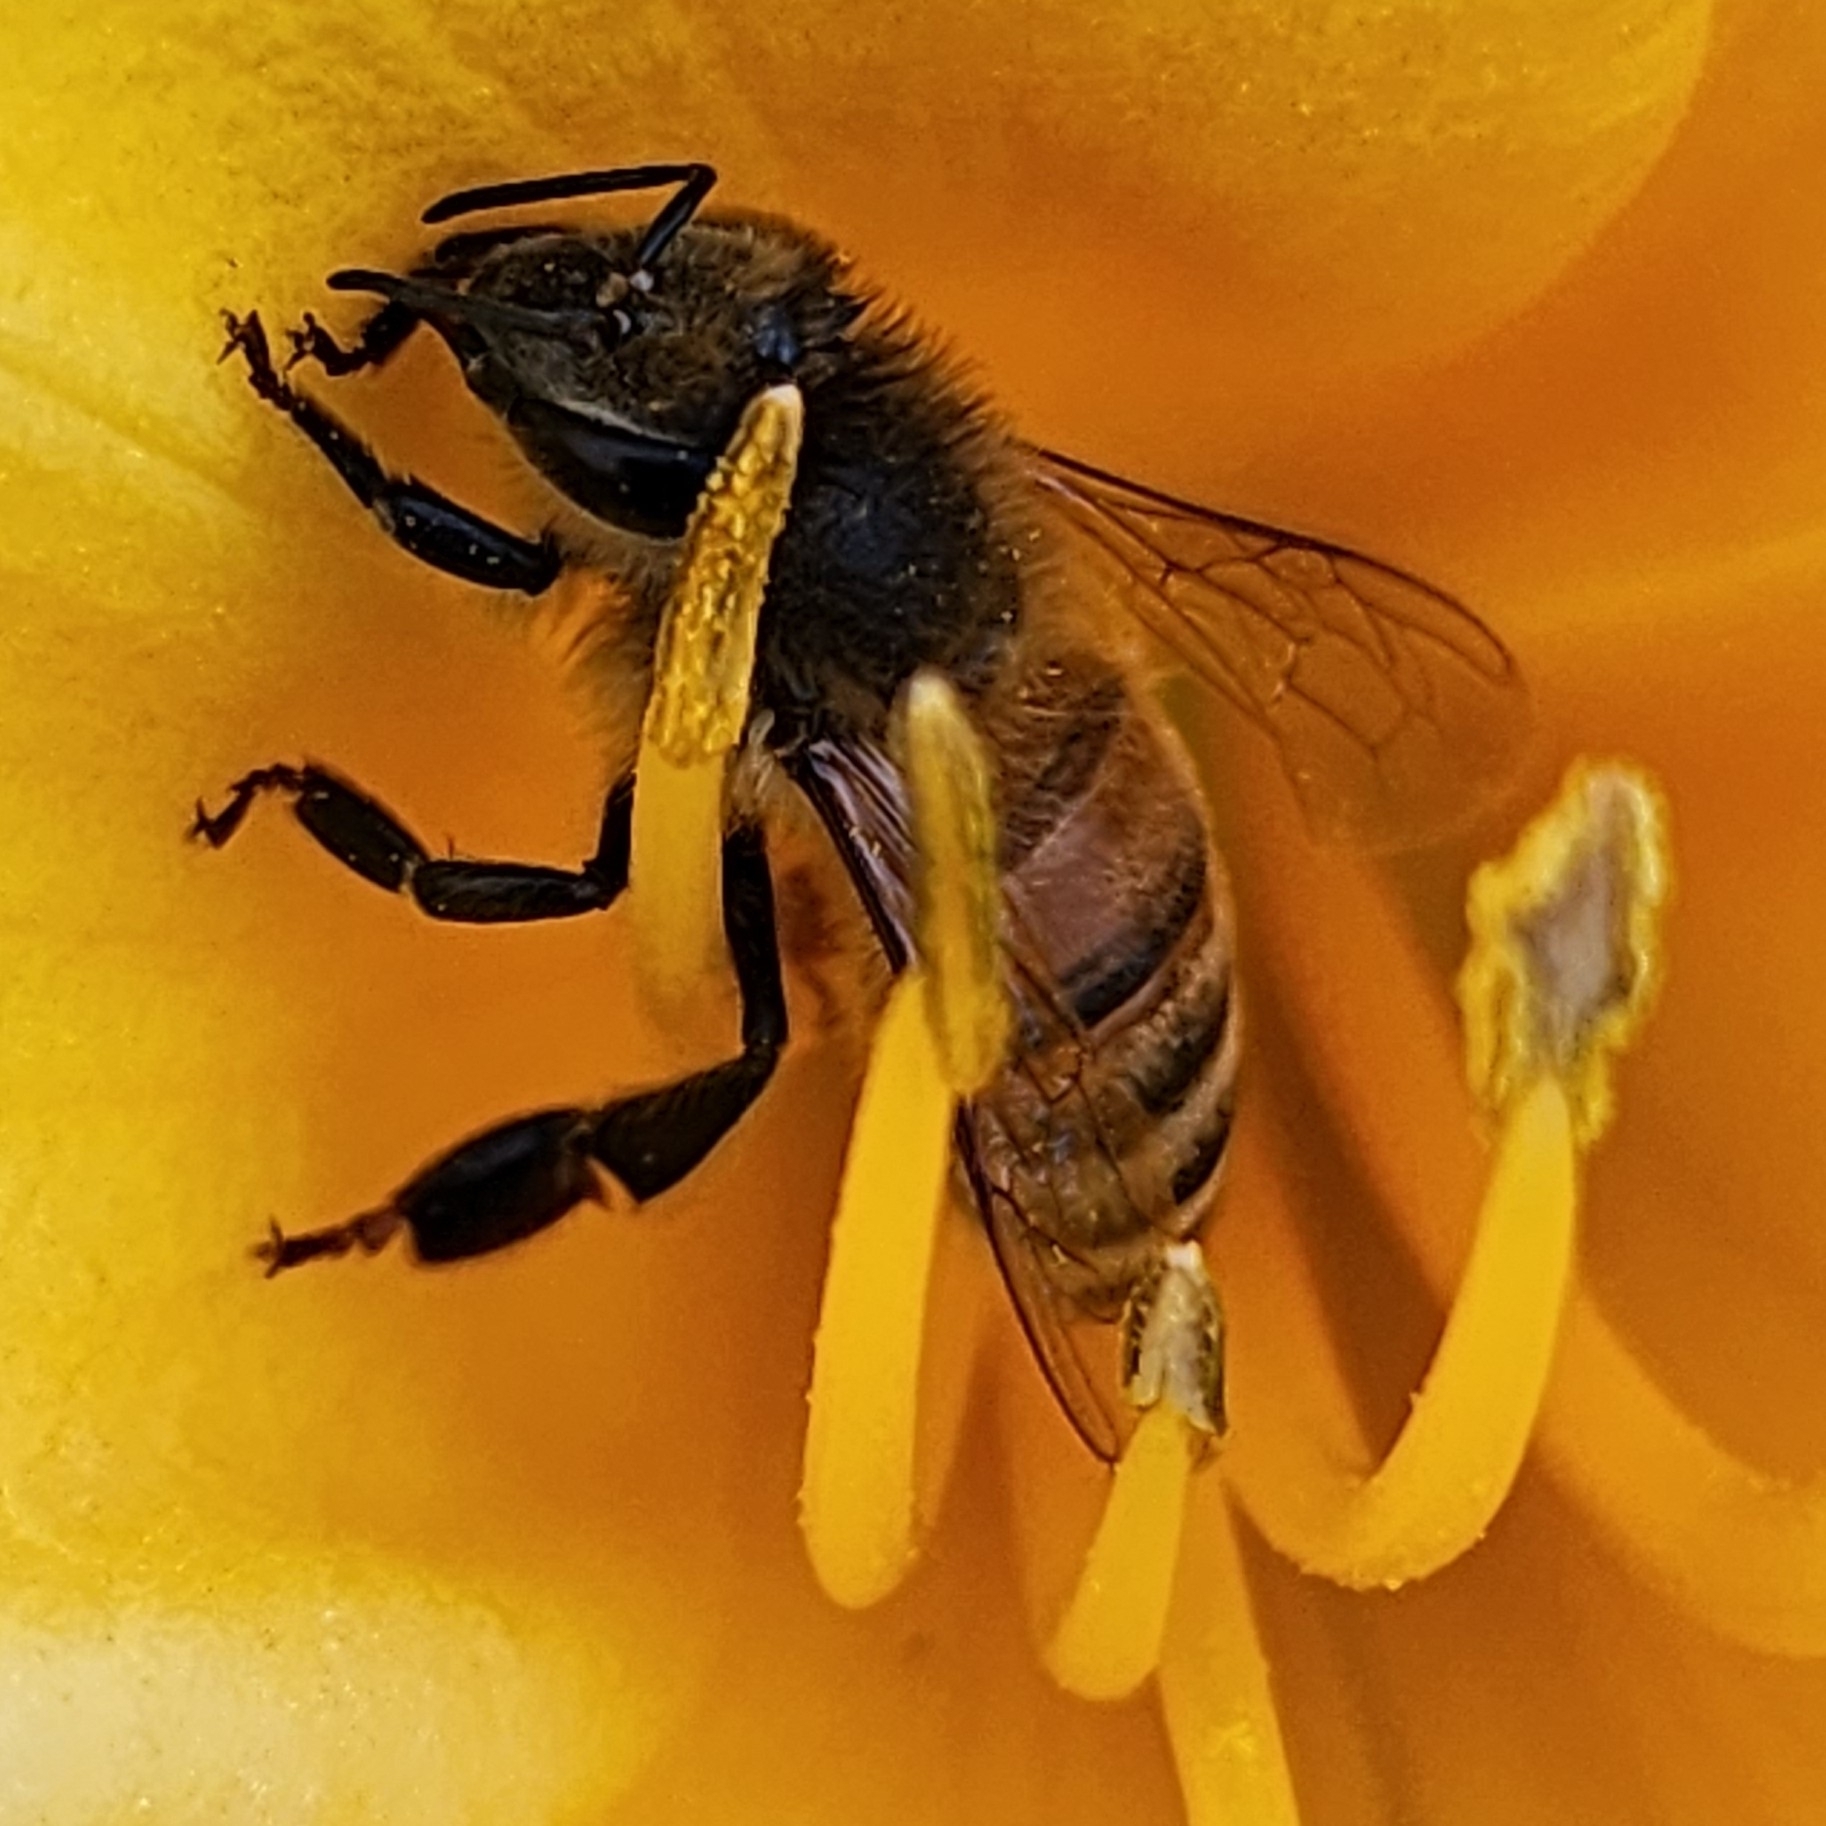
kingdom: Animalia
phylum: Arthropoda
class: Insecta
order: Hymenoptera
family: Apidae
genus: Apis
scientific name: Apis mellifera
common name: Honey bee
